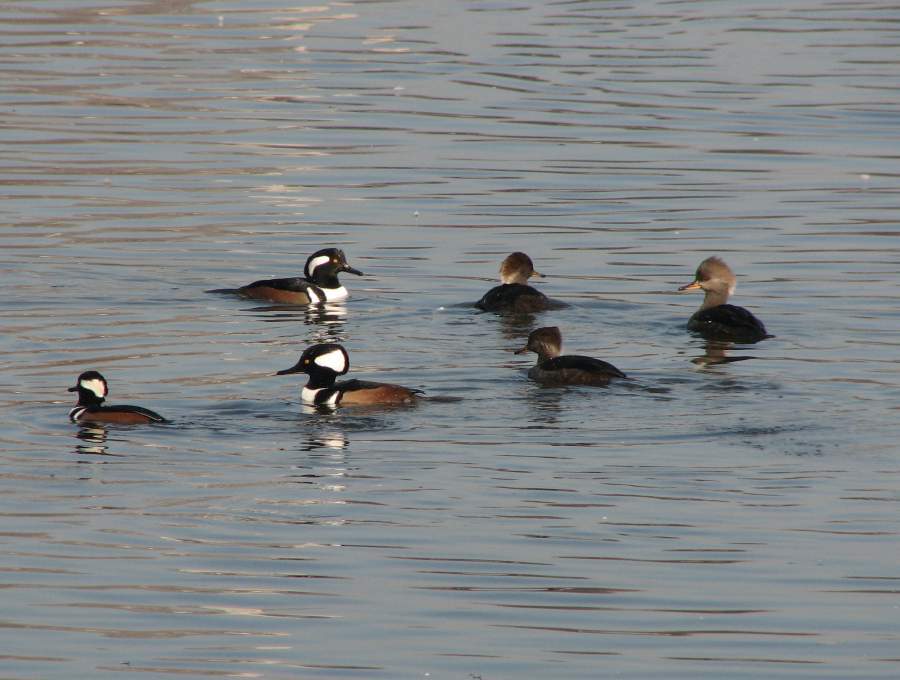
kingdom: Animalia
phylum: Chordata
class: Aves
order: Anseriformes
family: Anatidae
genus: Lophodytes
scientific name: Lophodytes cucullatus
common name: Hooded merganser
